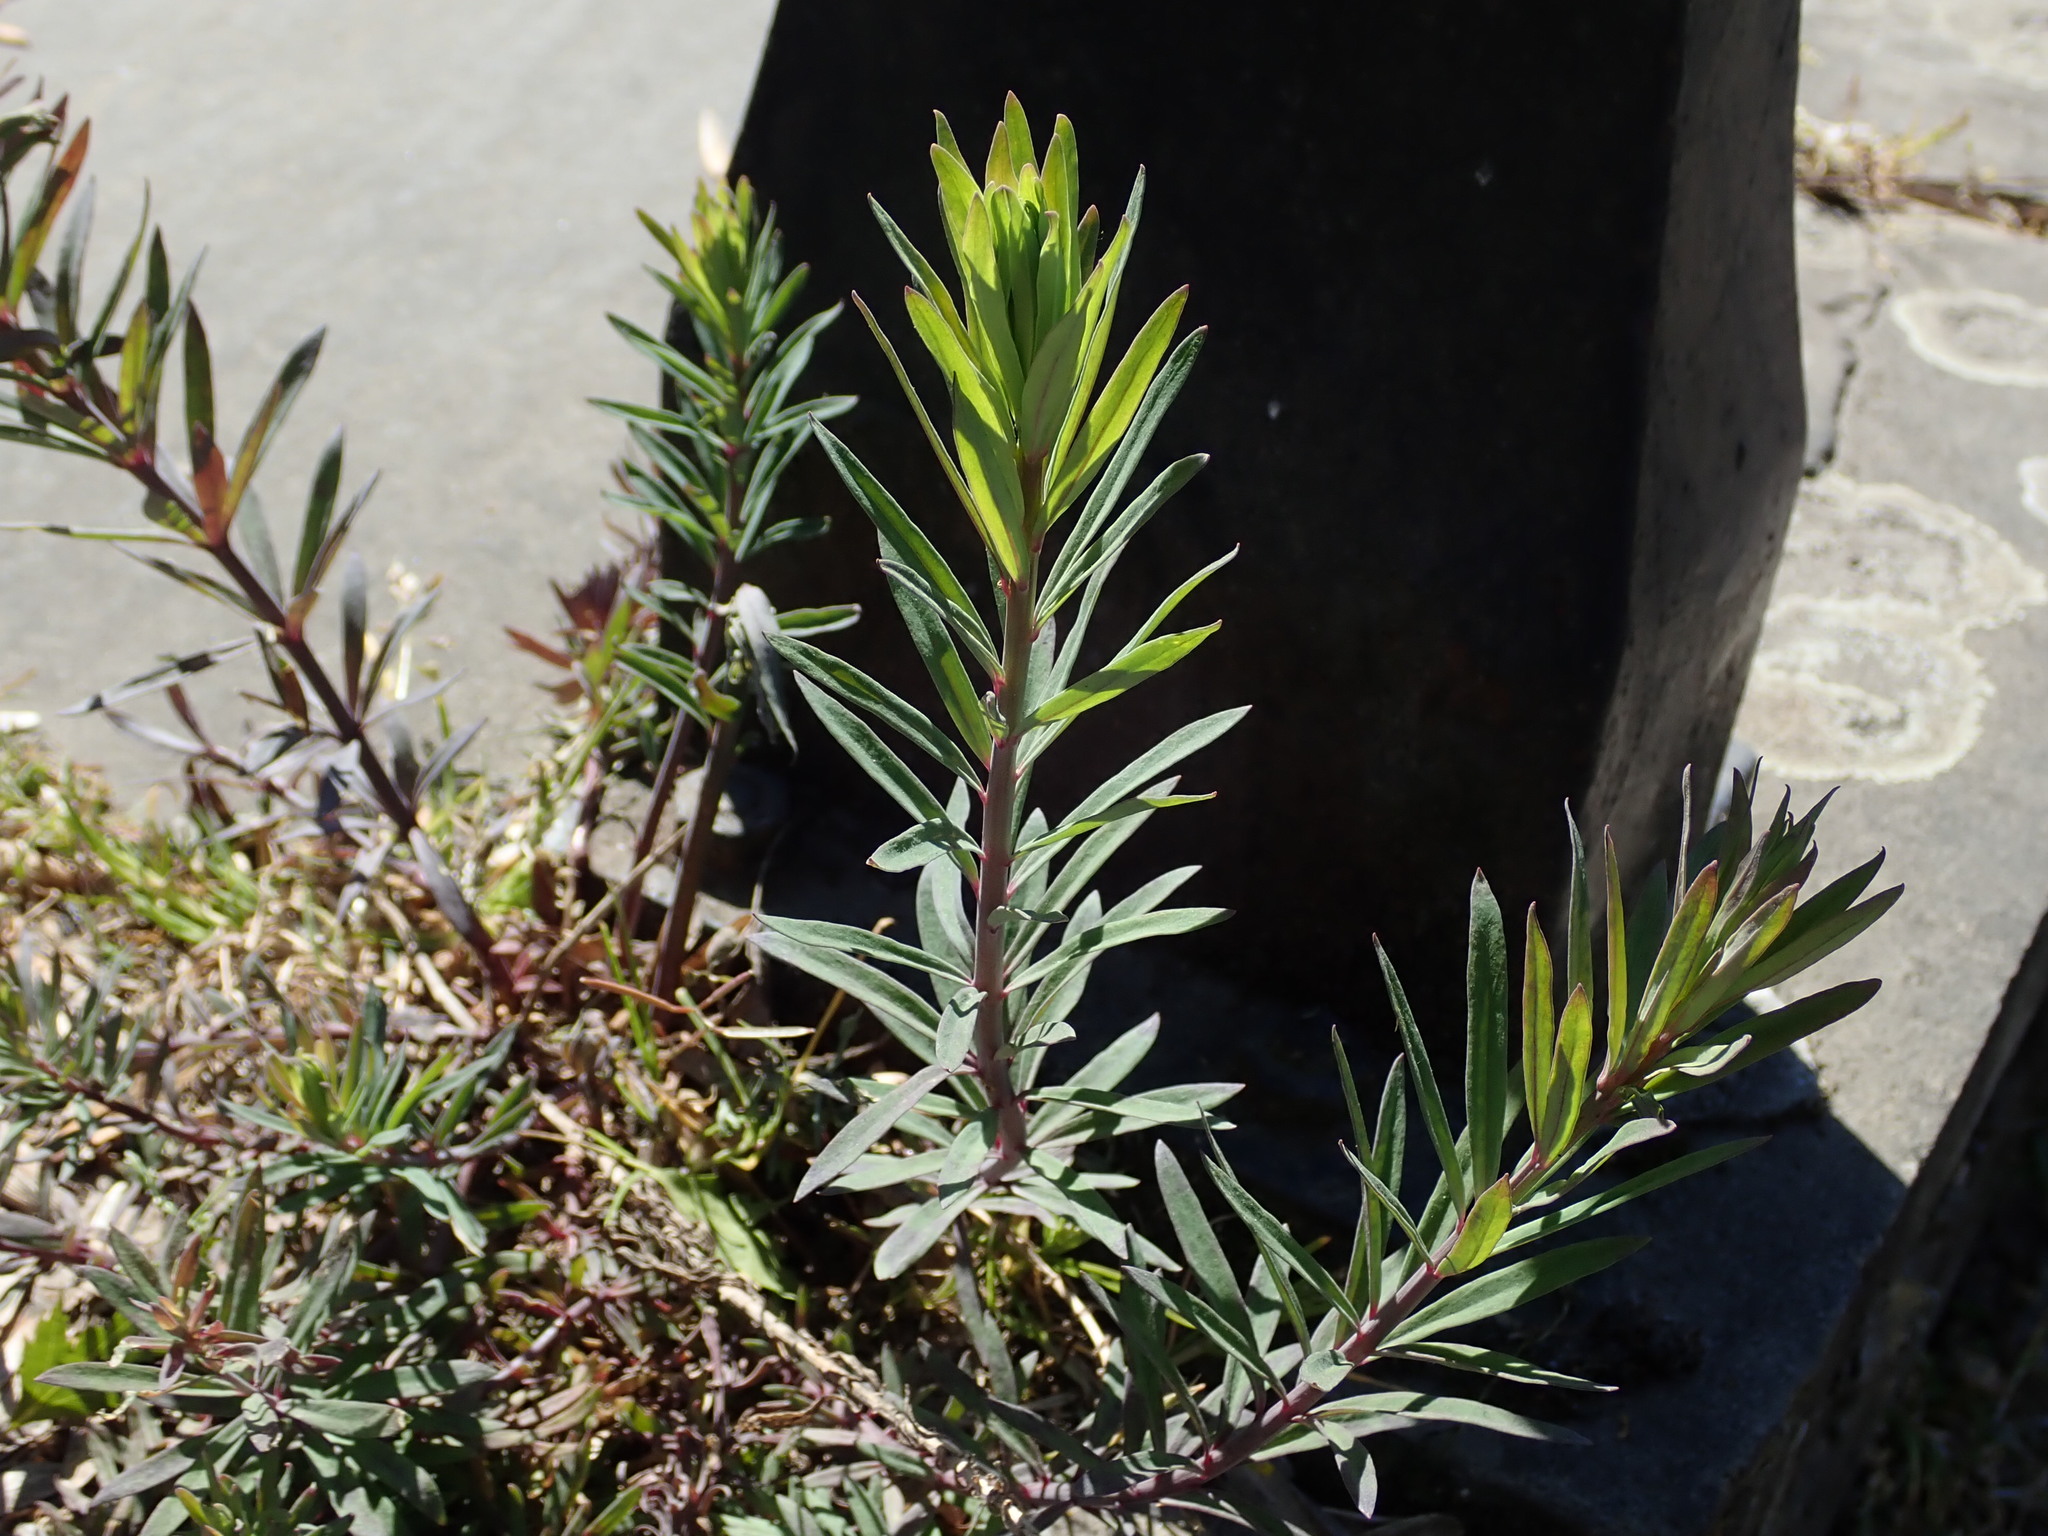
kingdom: Plantae
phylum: Tracheophyta
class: Magnoliopsida
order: Lamiales
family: Plantaginaceae
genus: Linaria
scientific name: Linaria purpurea
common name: Purple toadflax
